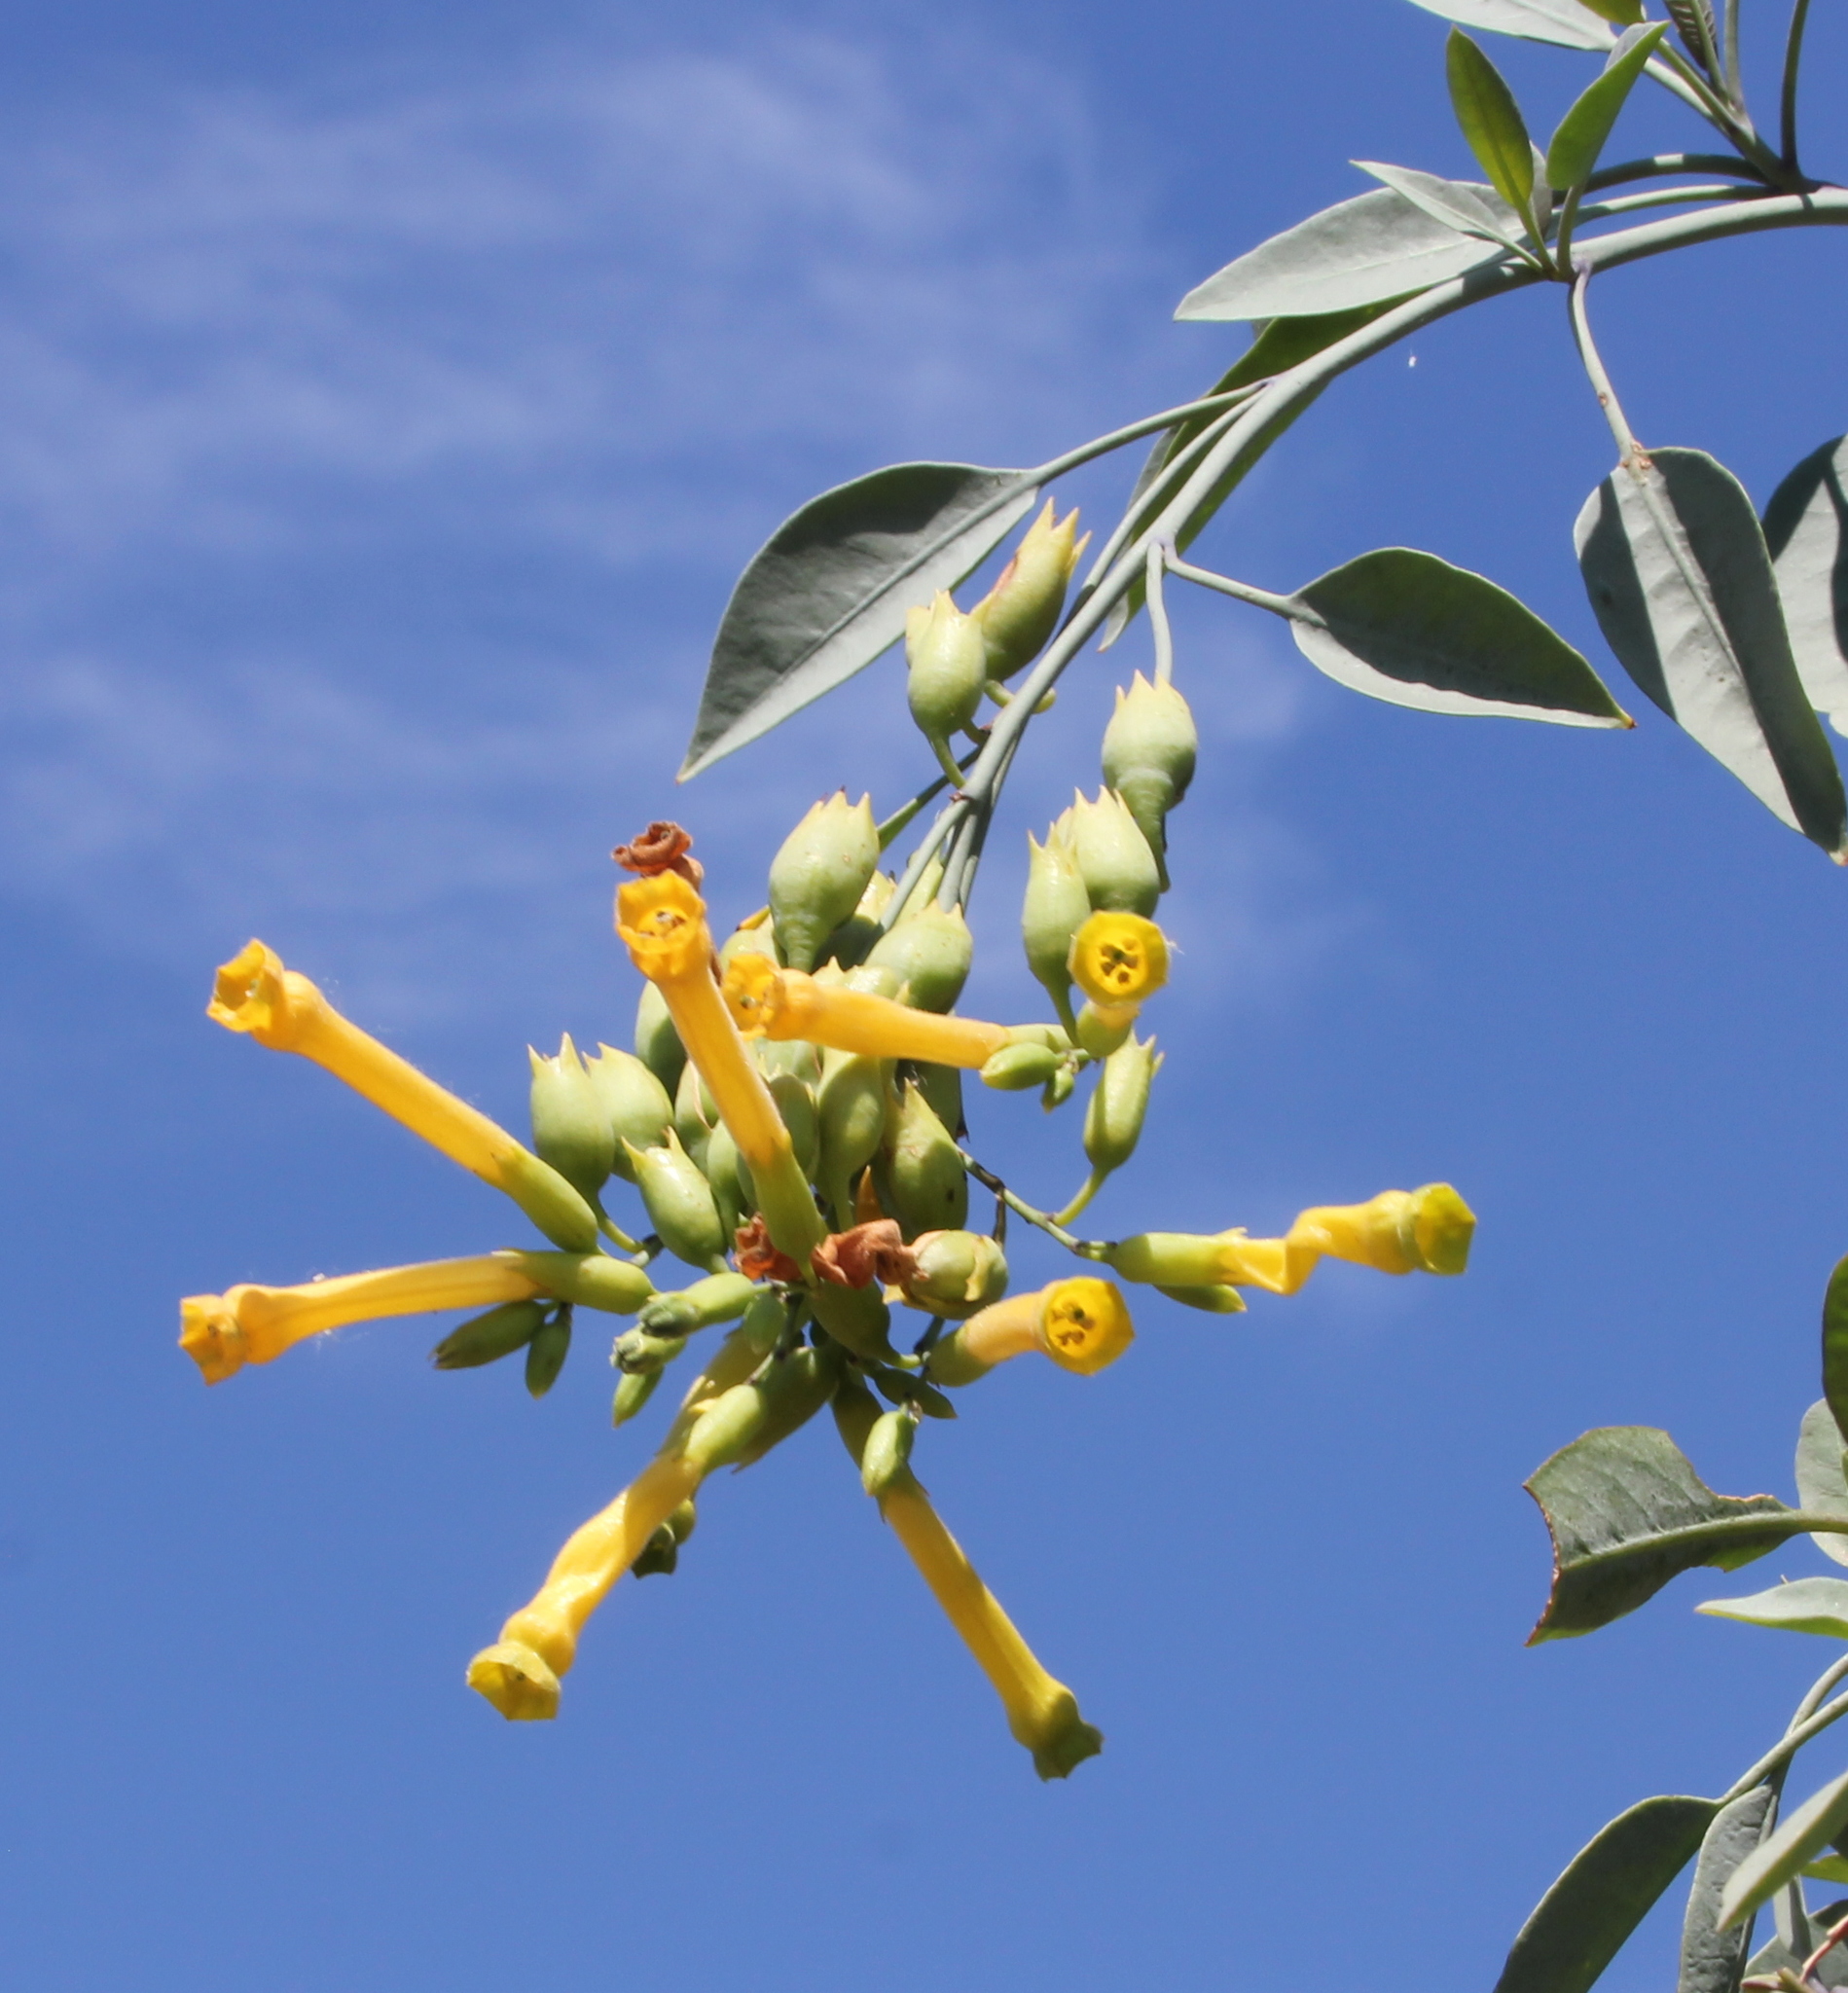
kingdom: Plantae
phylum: Tracheophyta
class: Magnoliopsida
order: Solanales
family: Solanaceae
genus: Nicotiana
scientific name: Nicotiana glauca
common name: Tree tobacco
